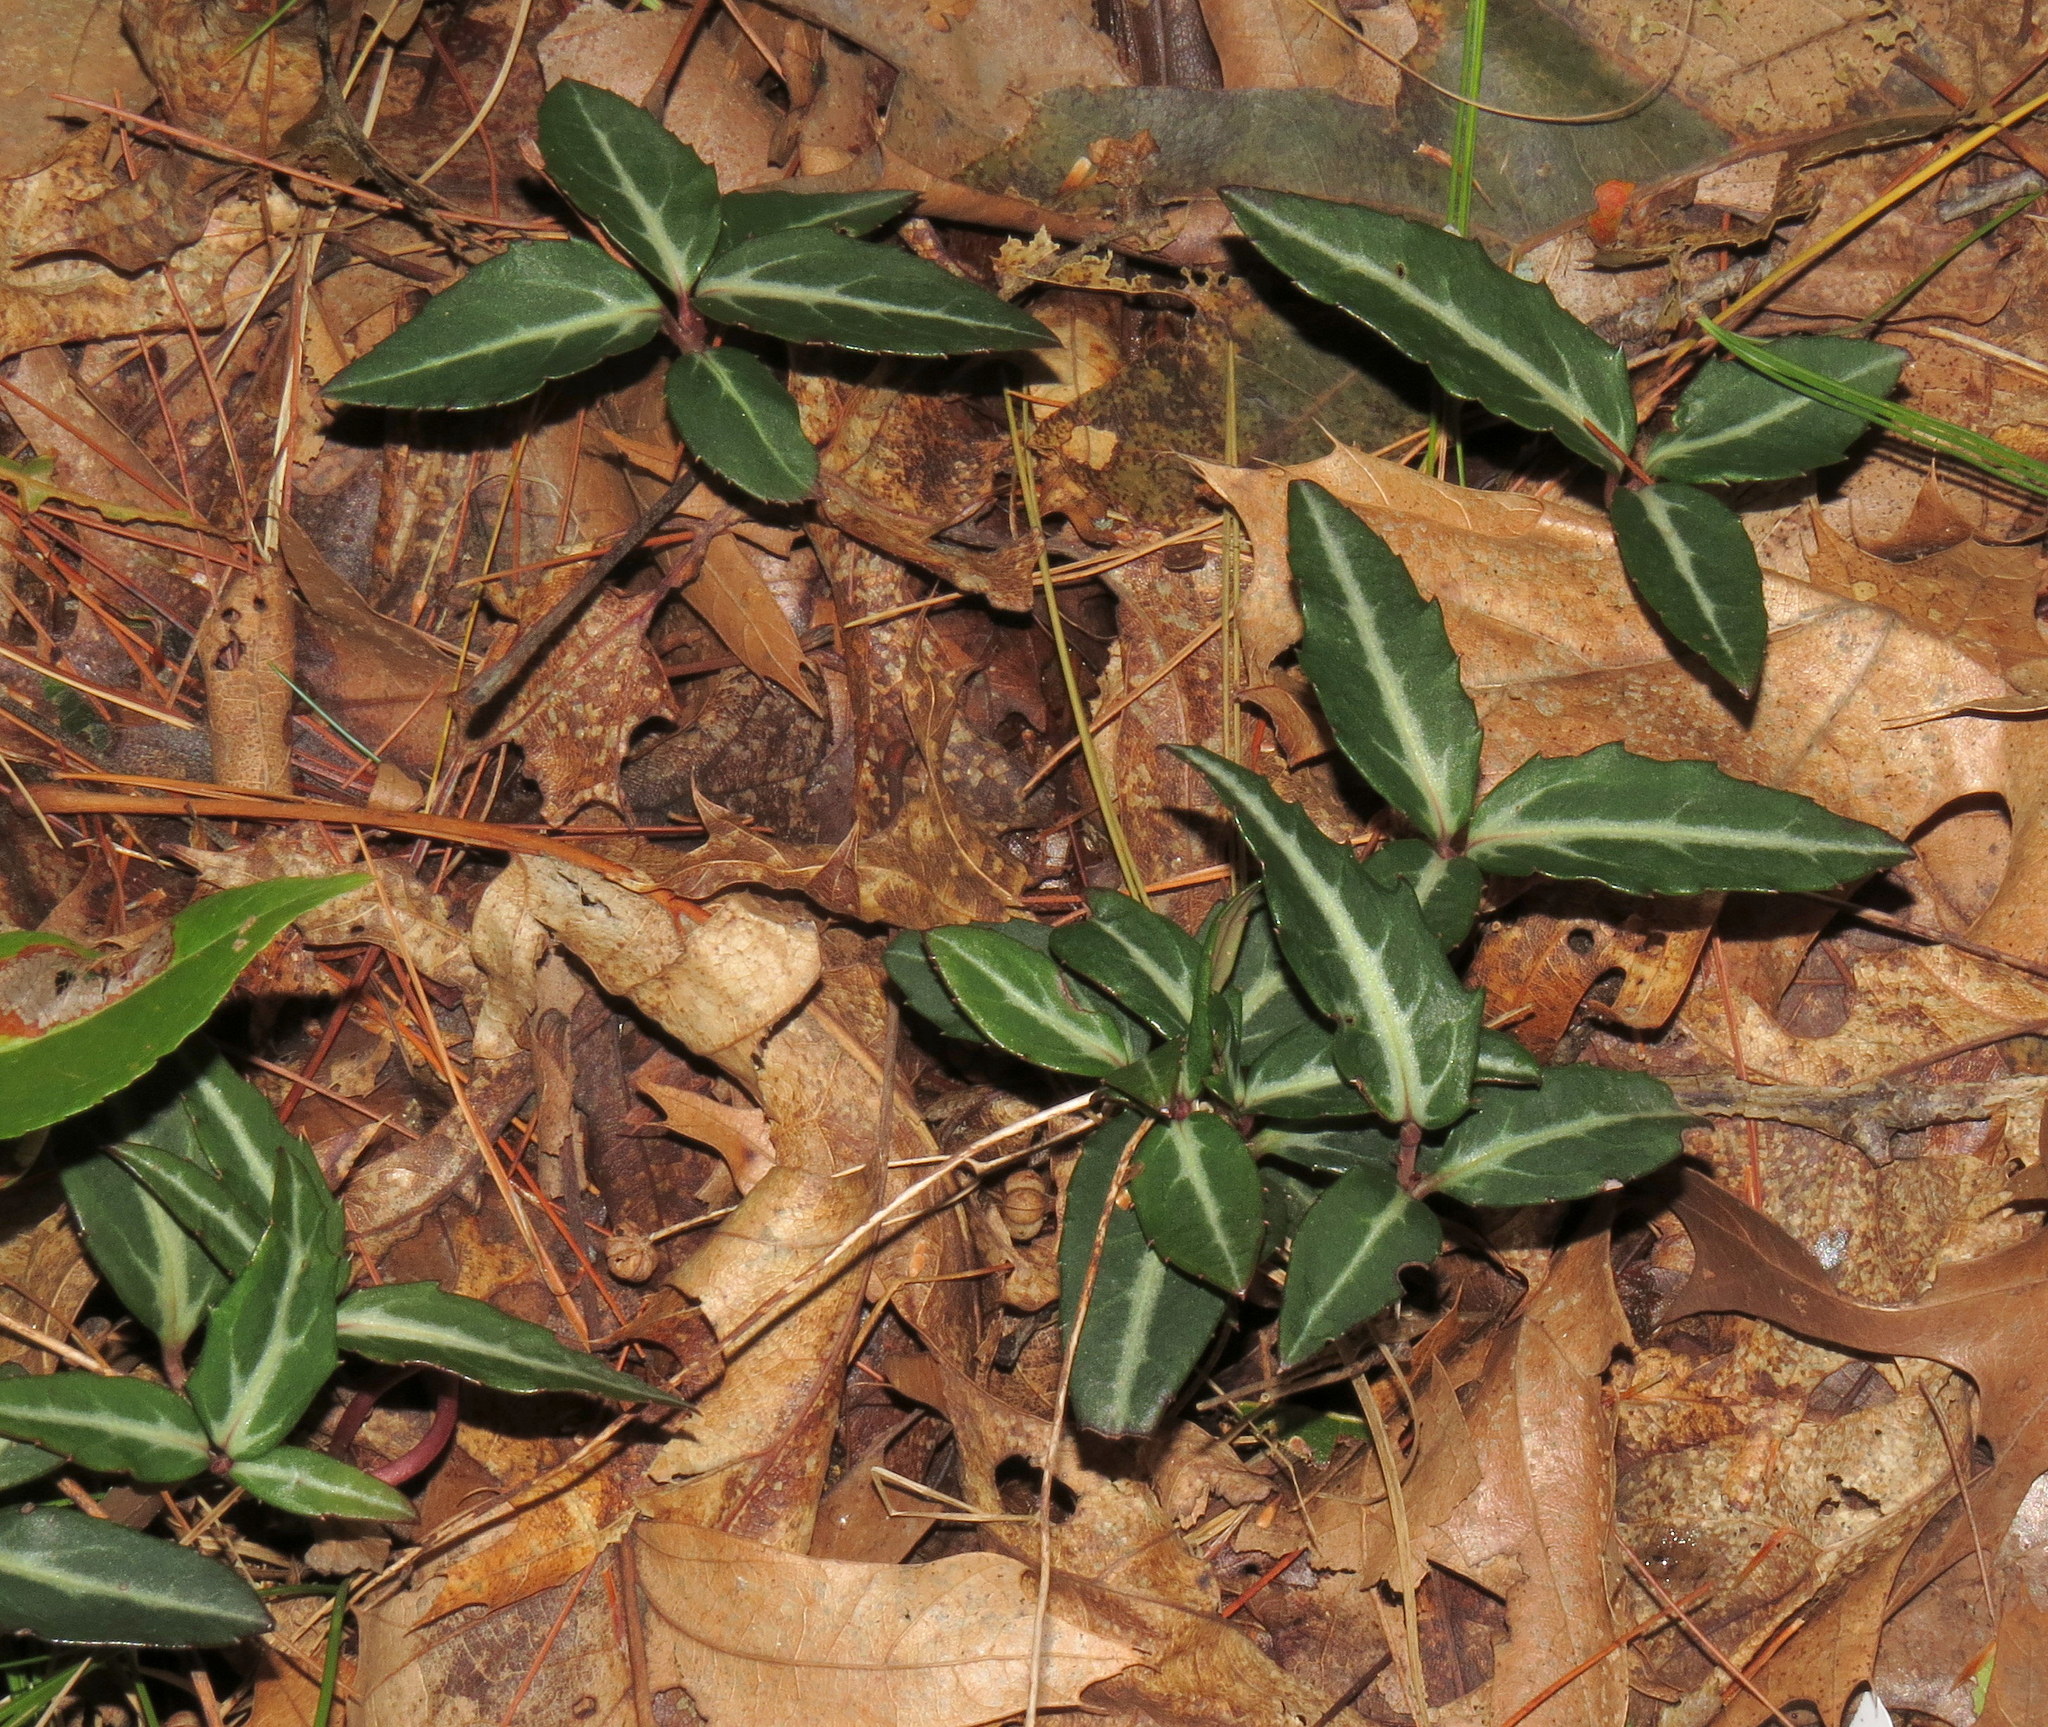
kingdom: Plantae
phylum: Tracheophyta
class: Magnoliopsida
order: Ericales
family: Ericaceae
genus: Chimaphila
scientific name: Chimaphila maculata
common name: Spotted pipsissewa
